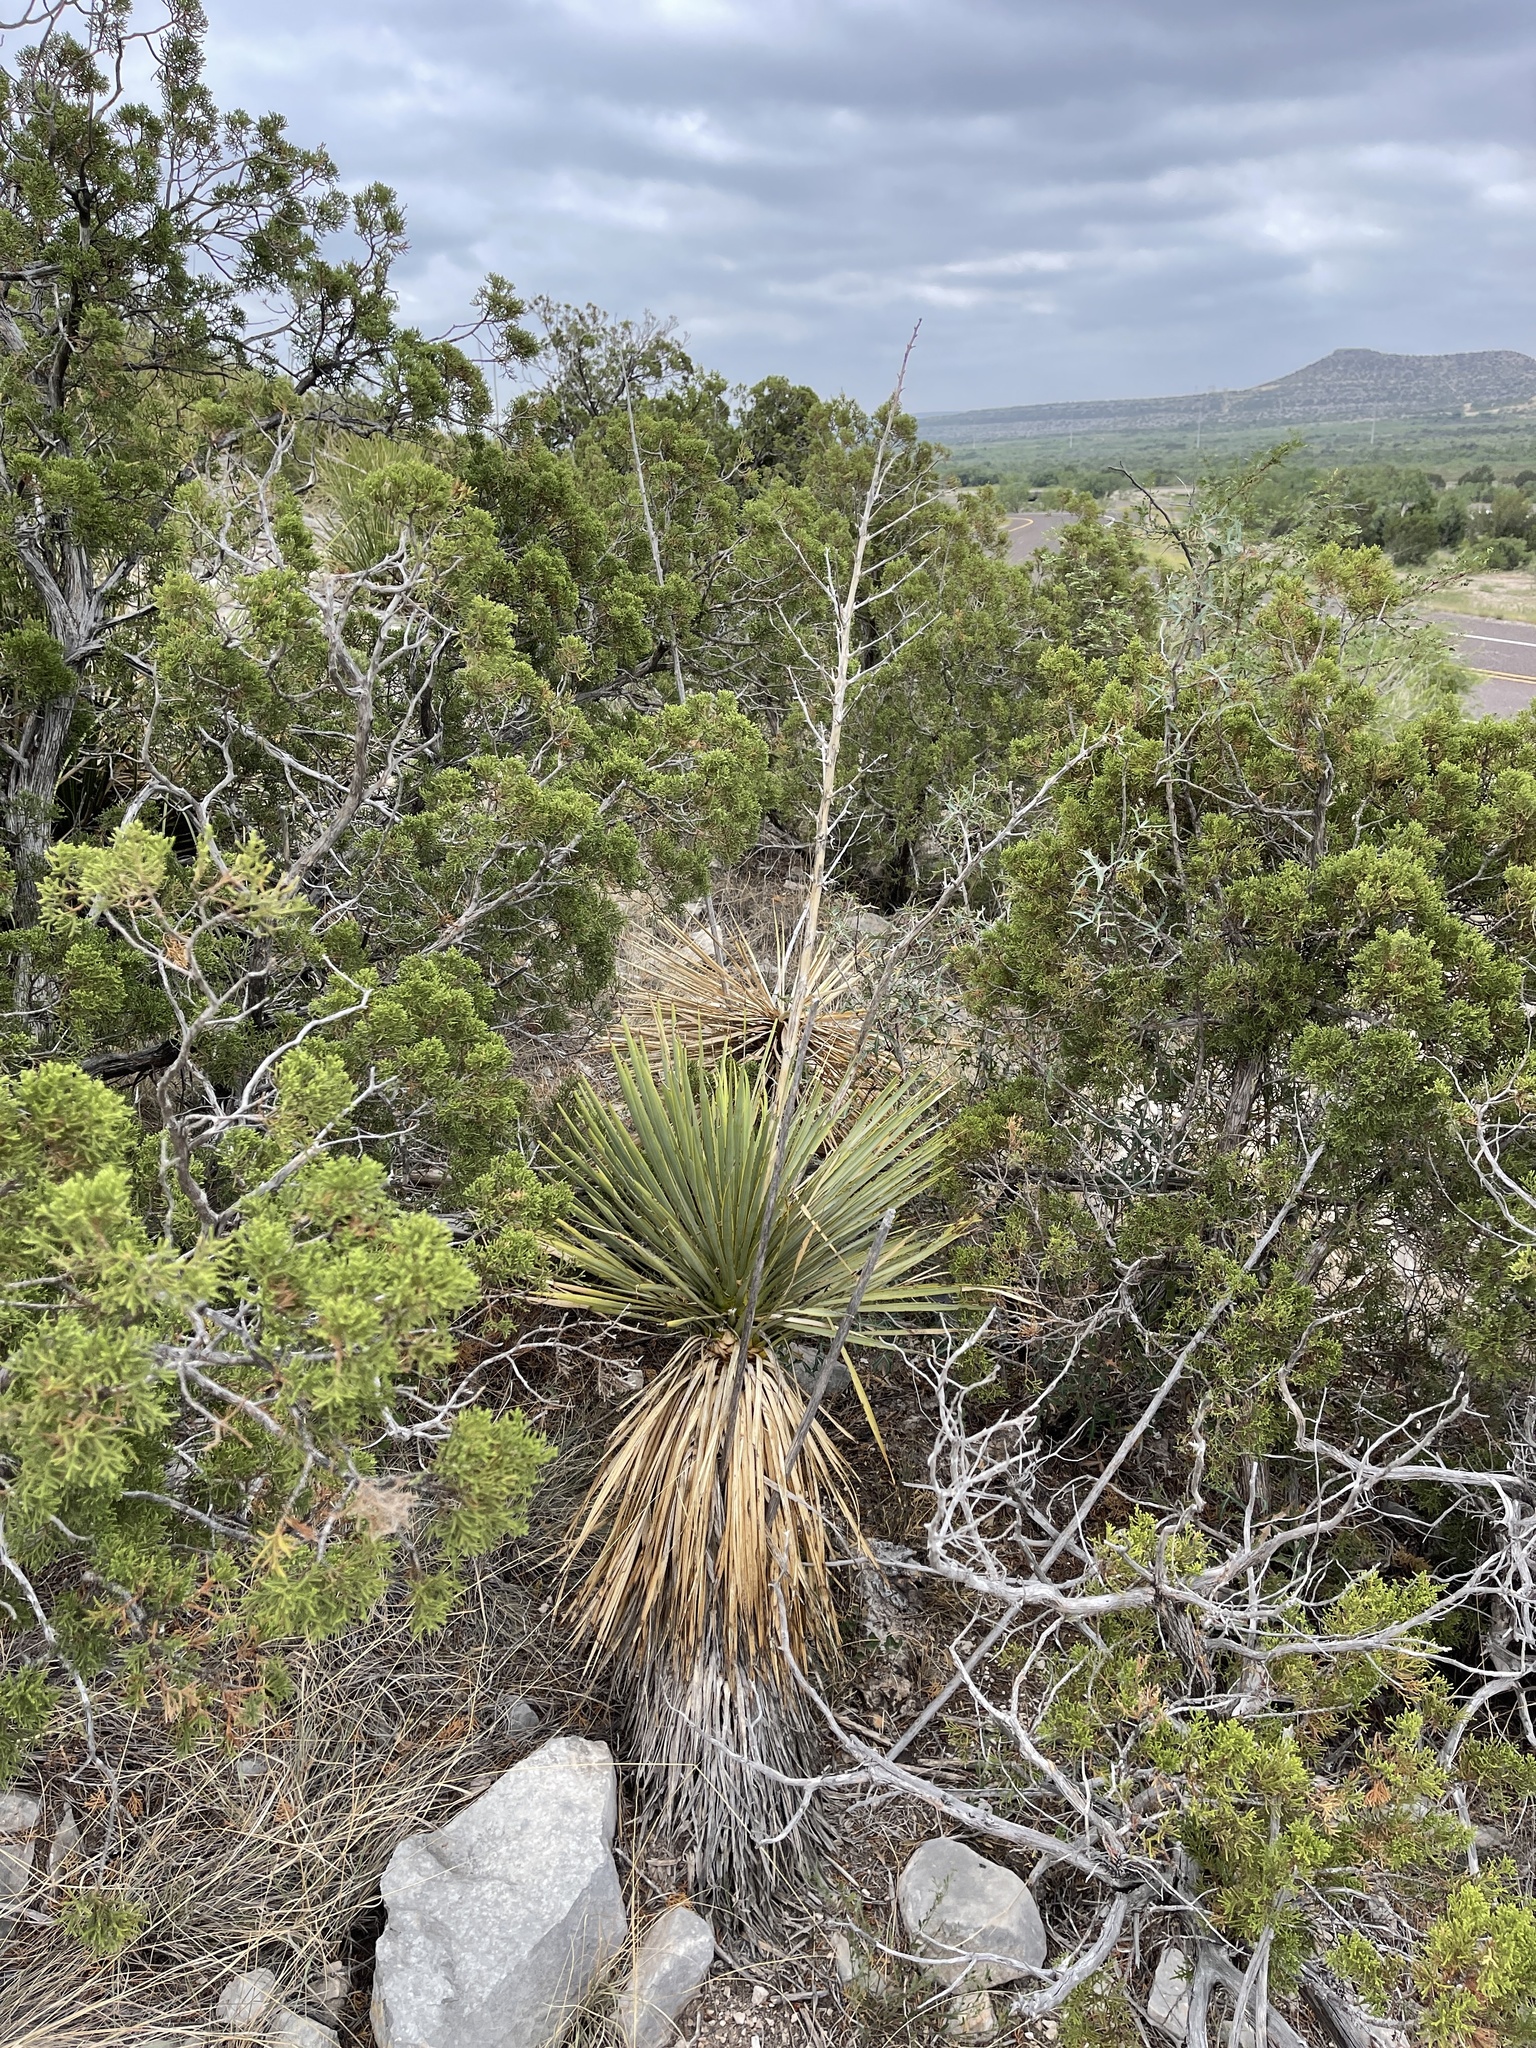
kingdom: Plantae
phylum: Tracheophyta
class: Liliopsida
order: Asparagales
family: Asparagaceae
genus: Yucca
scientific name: Yucca thompsoniana
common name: Trans-pecos yucca
